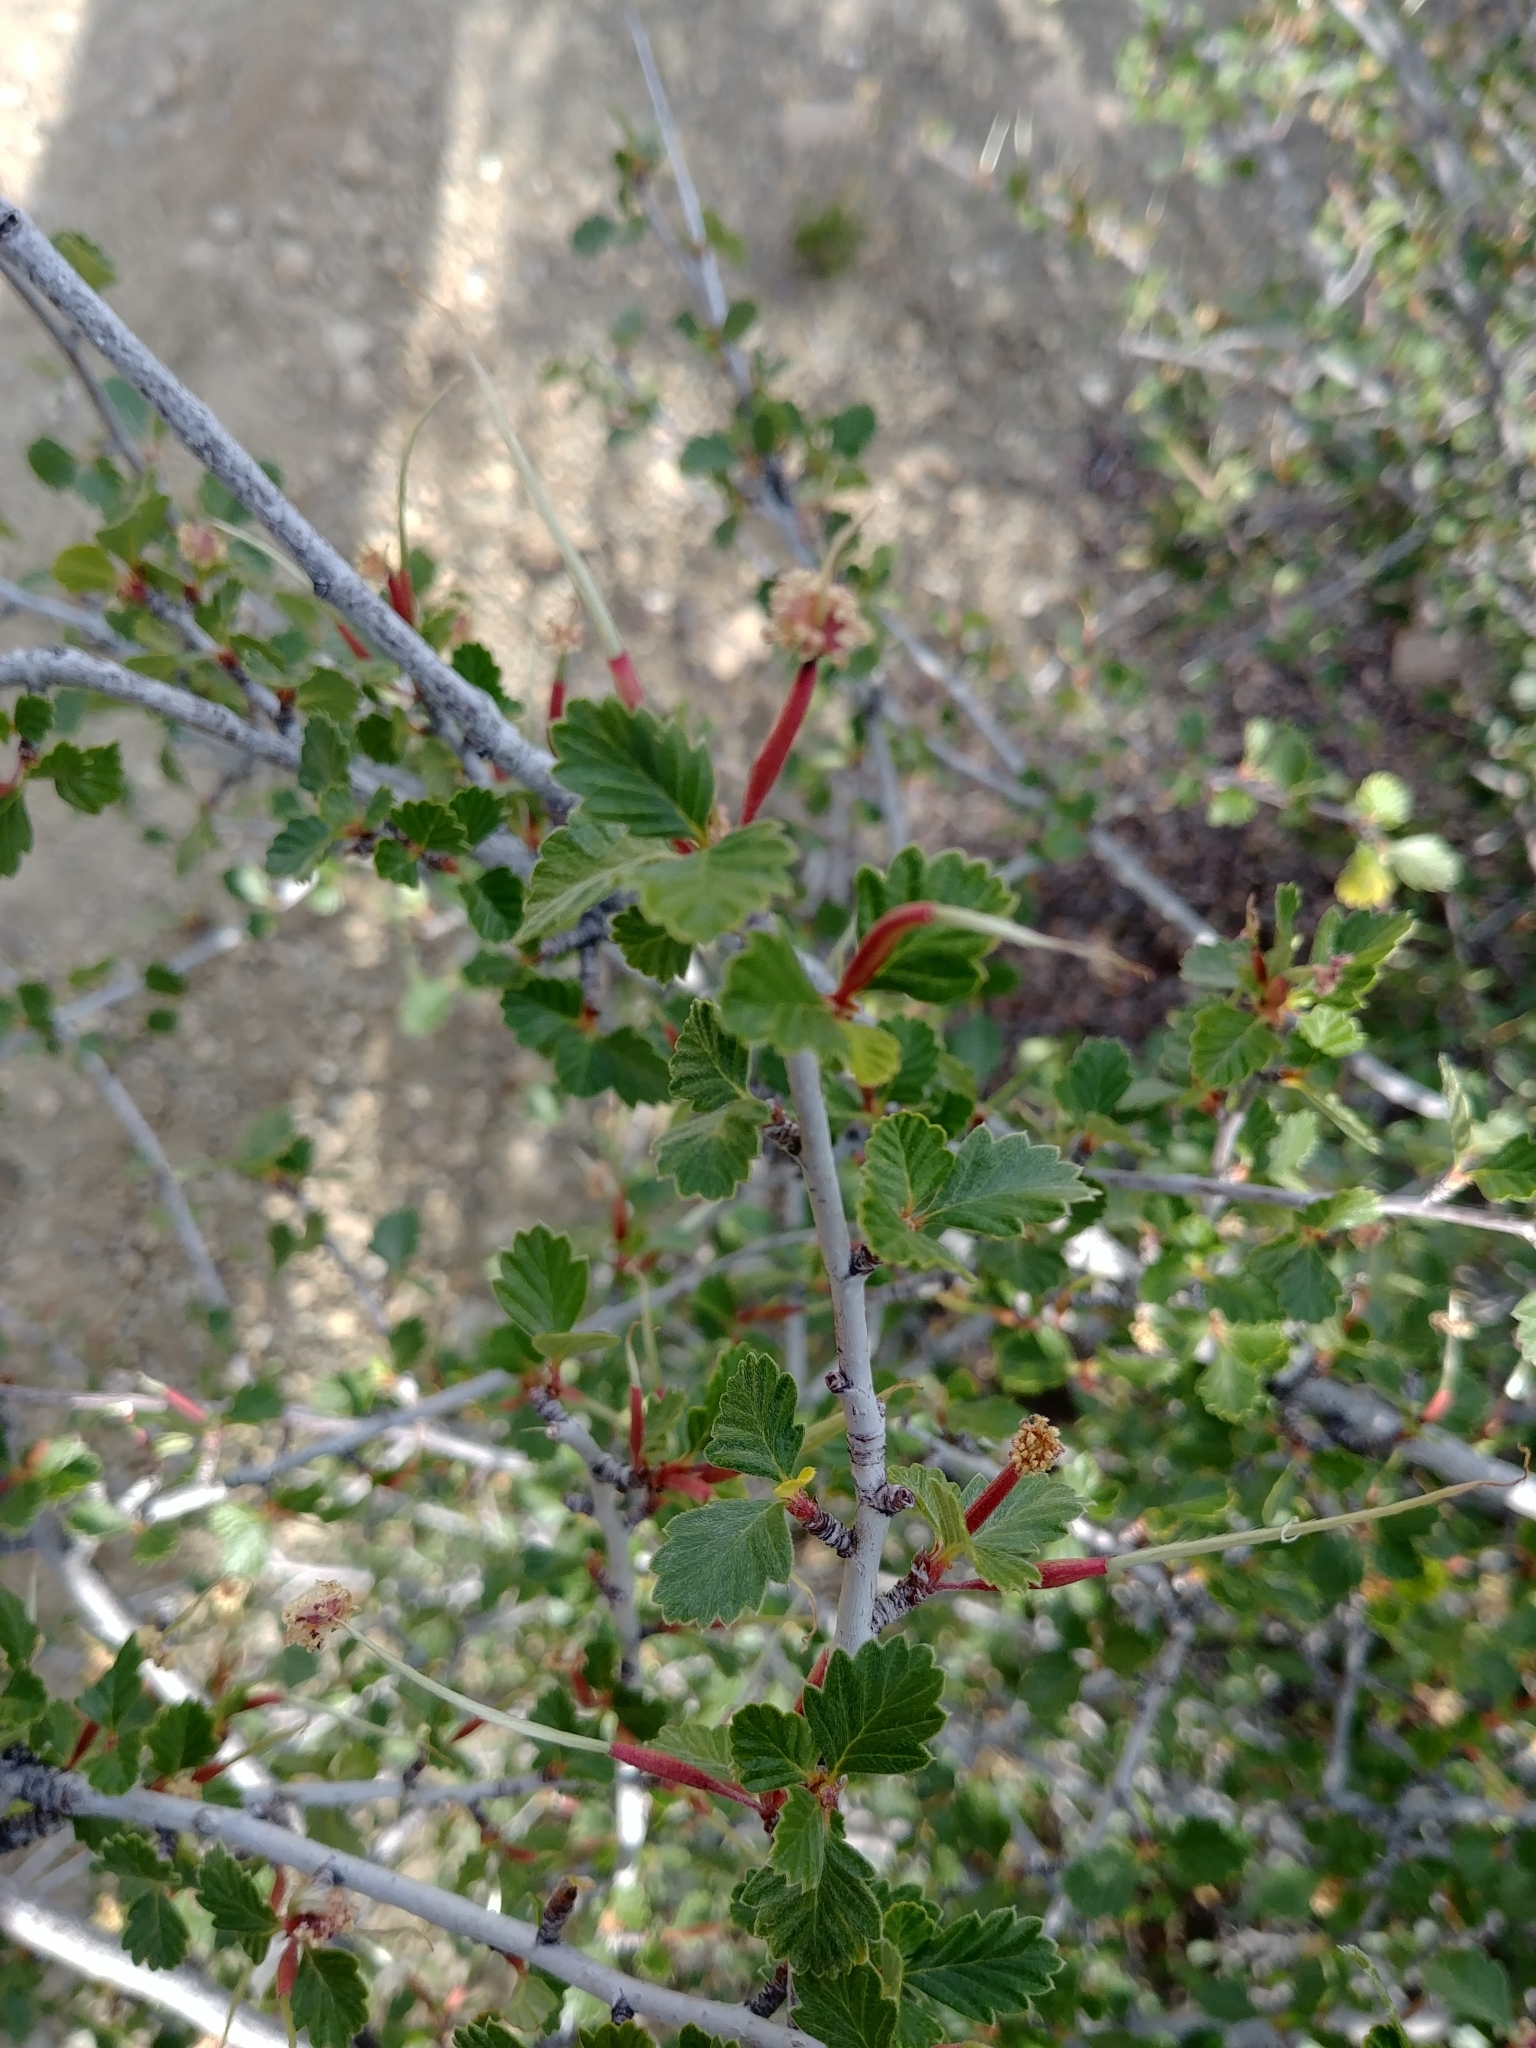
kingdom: Plantae
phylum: Tracheophyta
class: Magnoliopsida
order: Rosales
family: Rosaceae
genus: Cercocarpus
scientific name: Cercocarpus montanus
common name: Alder-leaf cercocarpus
